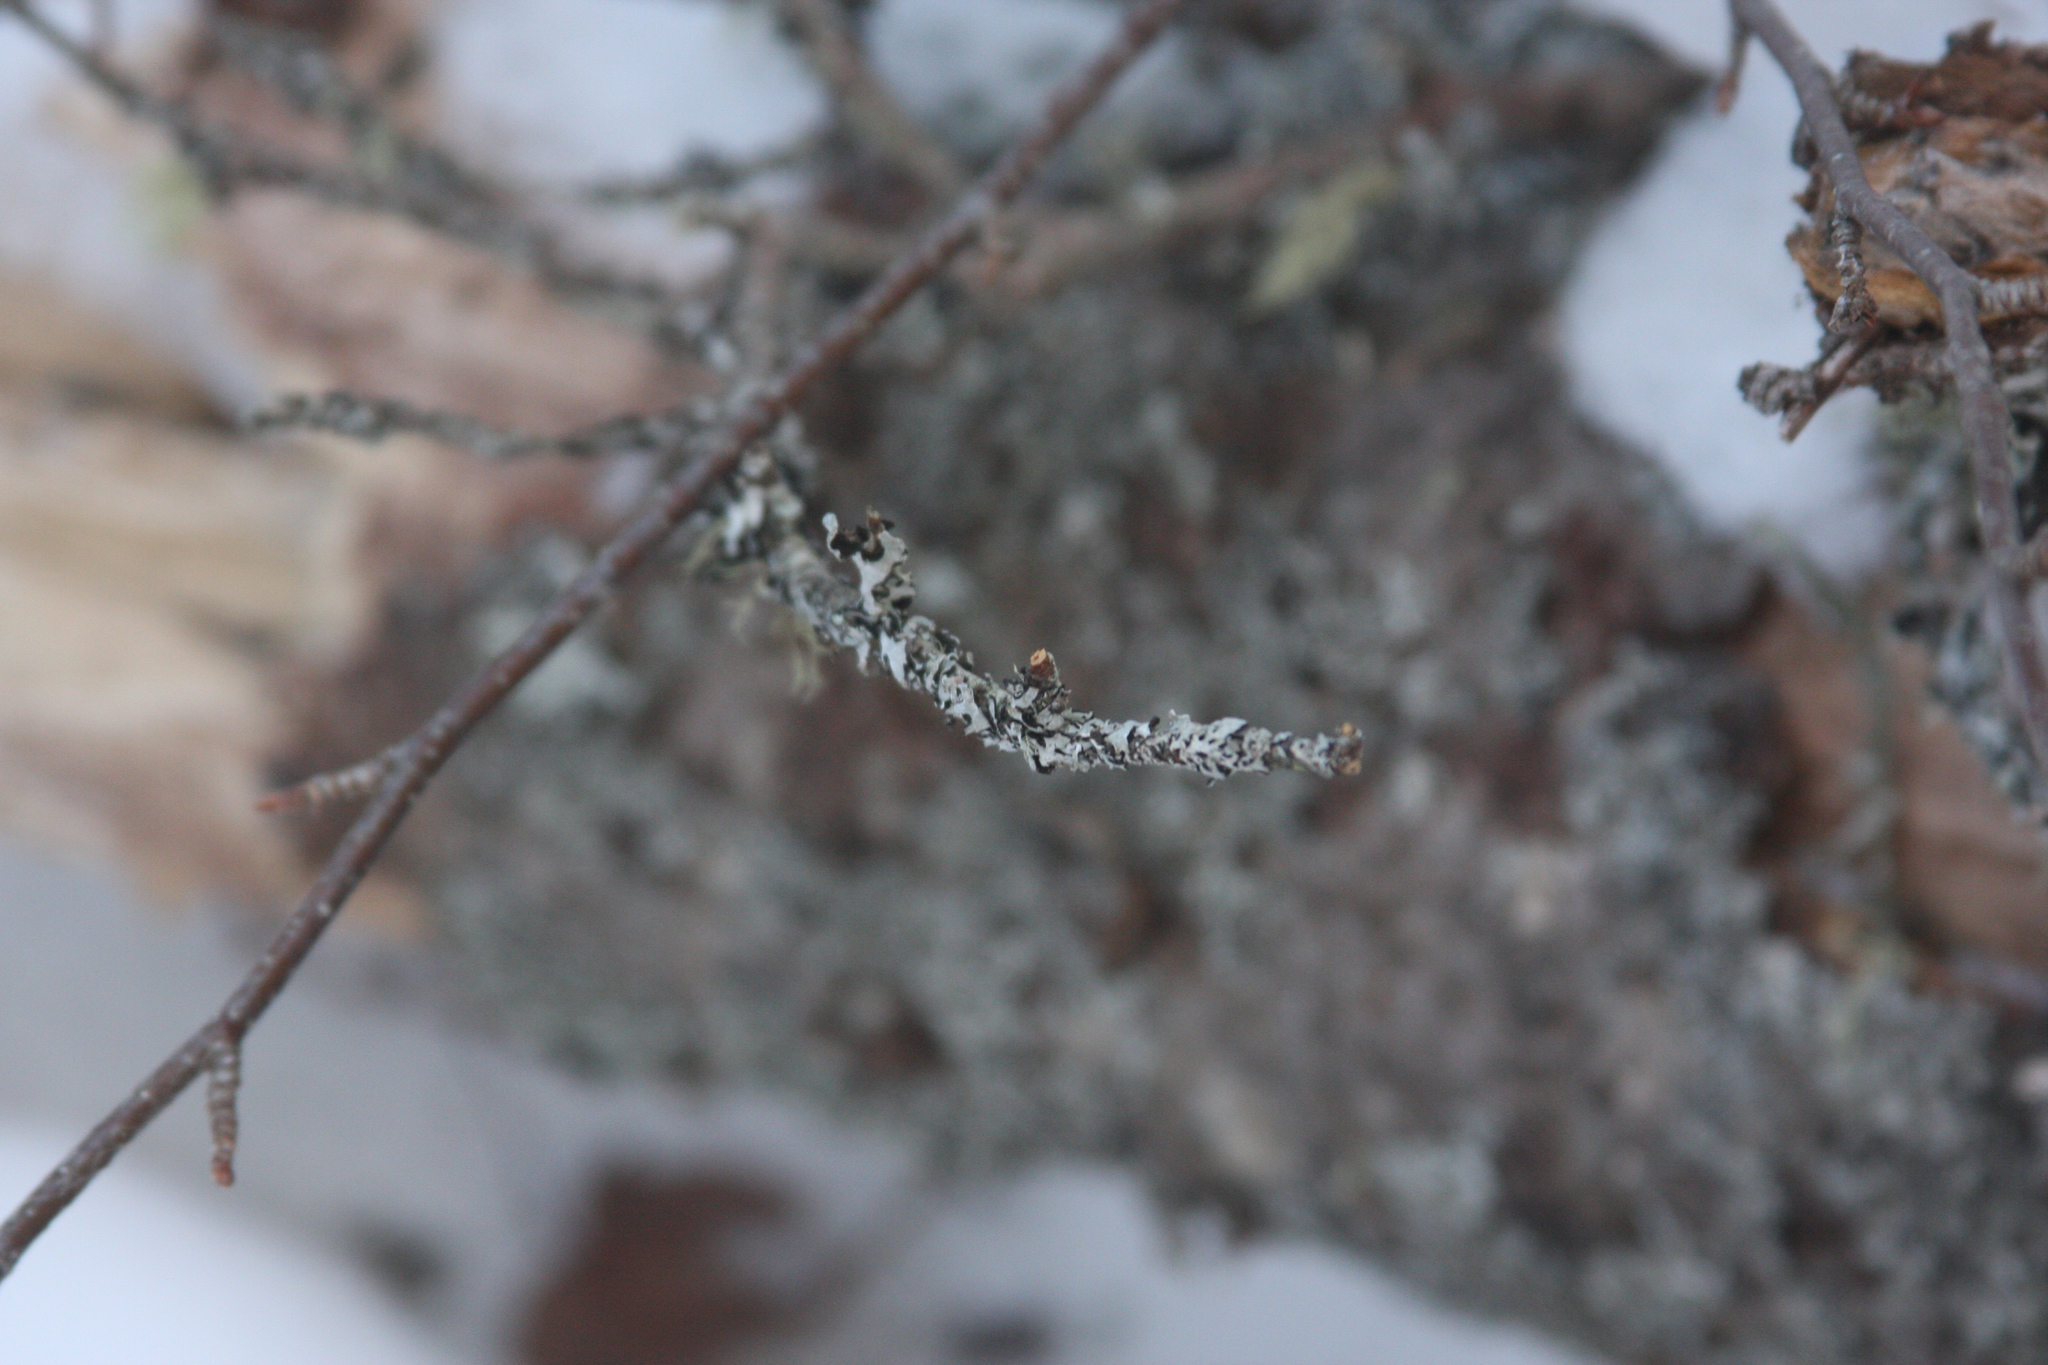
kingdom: Fungi
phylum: Ascomycota
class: Lecanoromycetes
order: Lecanorales
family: Parmeliaceae
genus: Parmelia
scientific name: Parmelia sulcata
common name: Netted shield lichen
